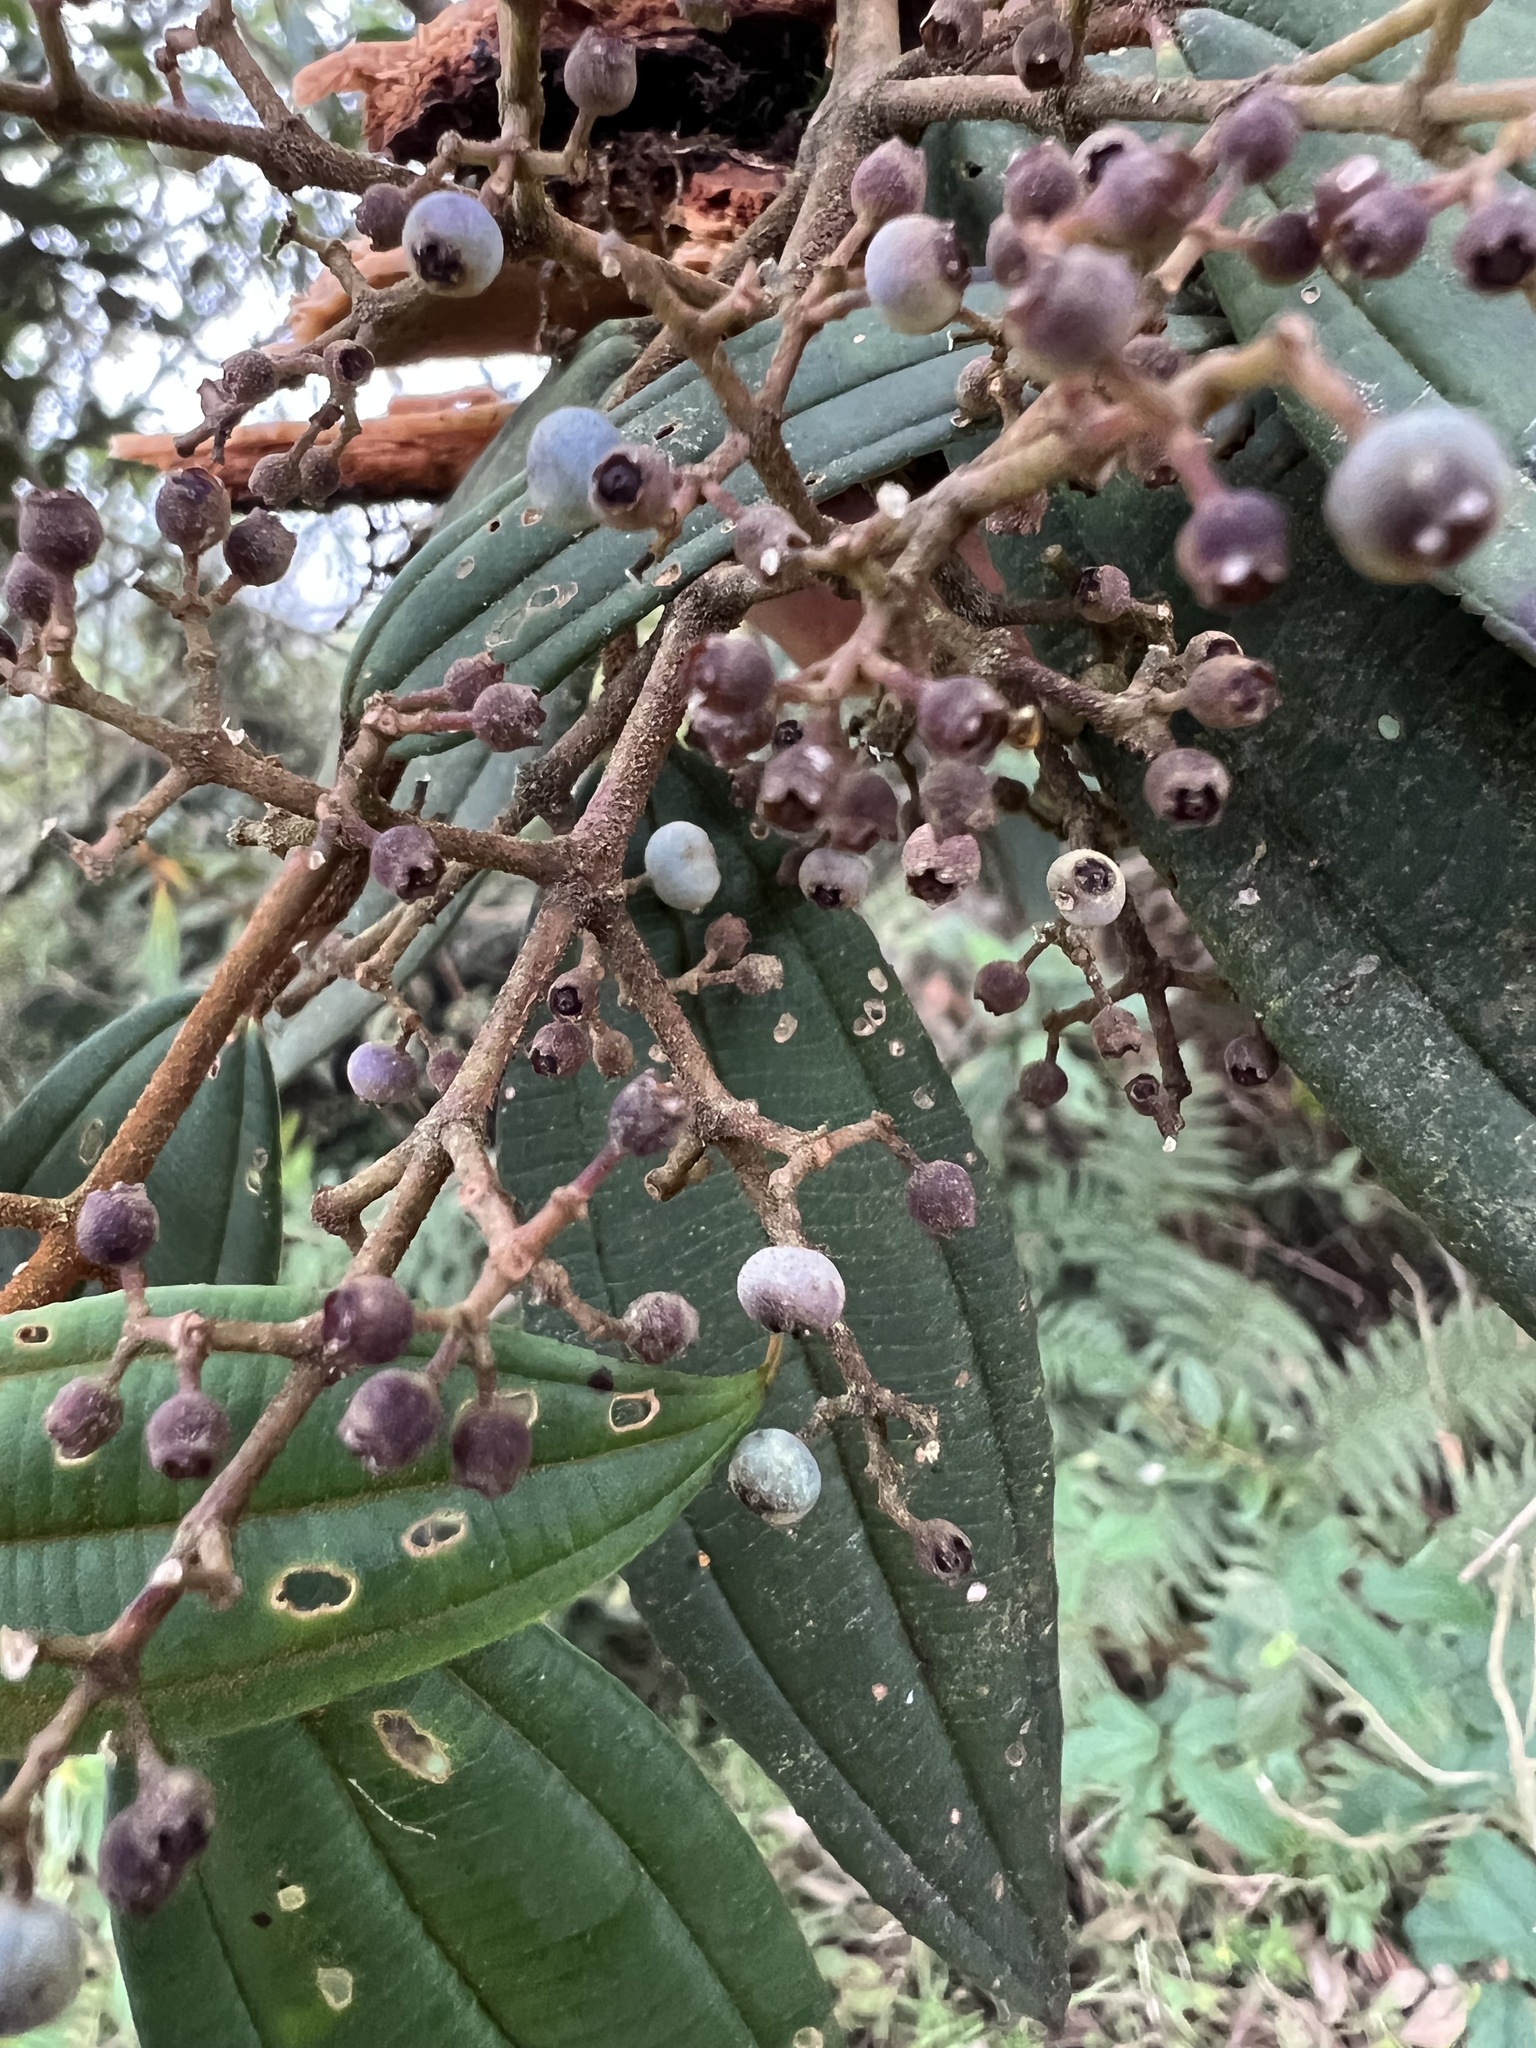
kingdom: Plantae
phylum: Tracheophyta
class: Magnoliopsida
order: Myrtales
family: Melastomataceae
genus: Miconia
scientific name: Miconia miocarpa
